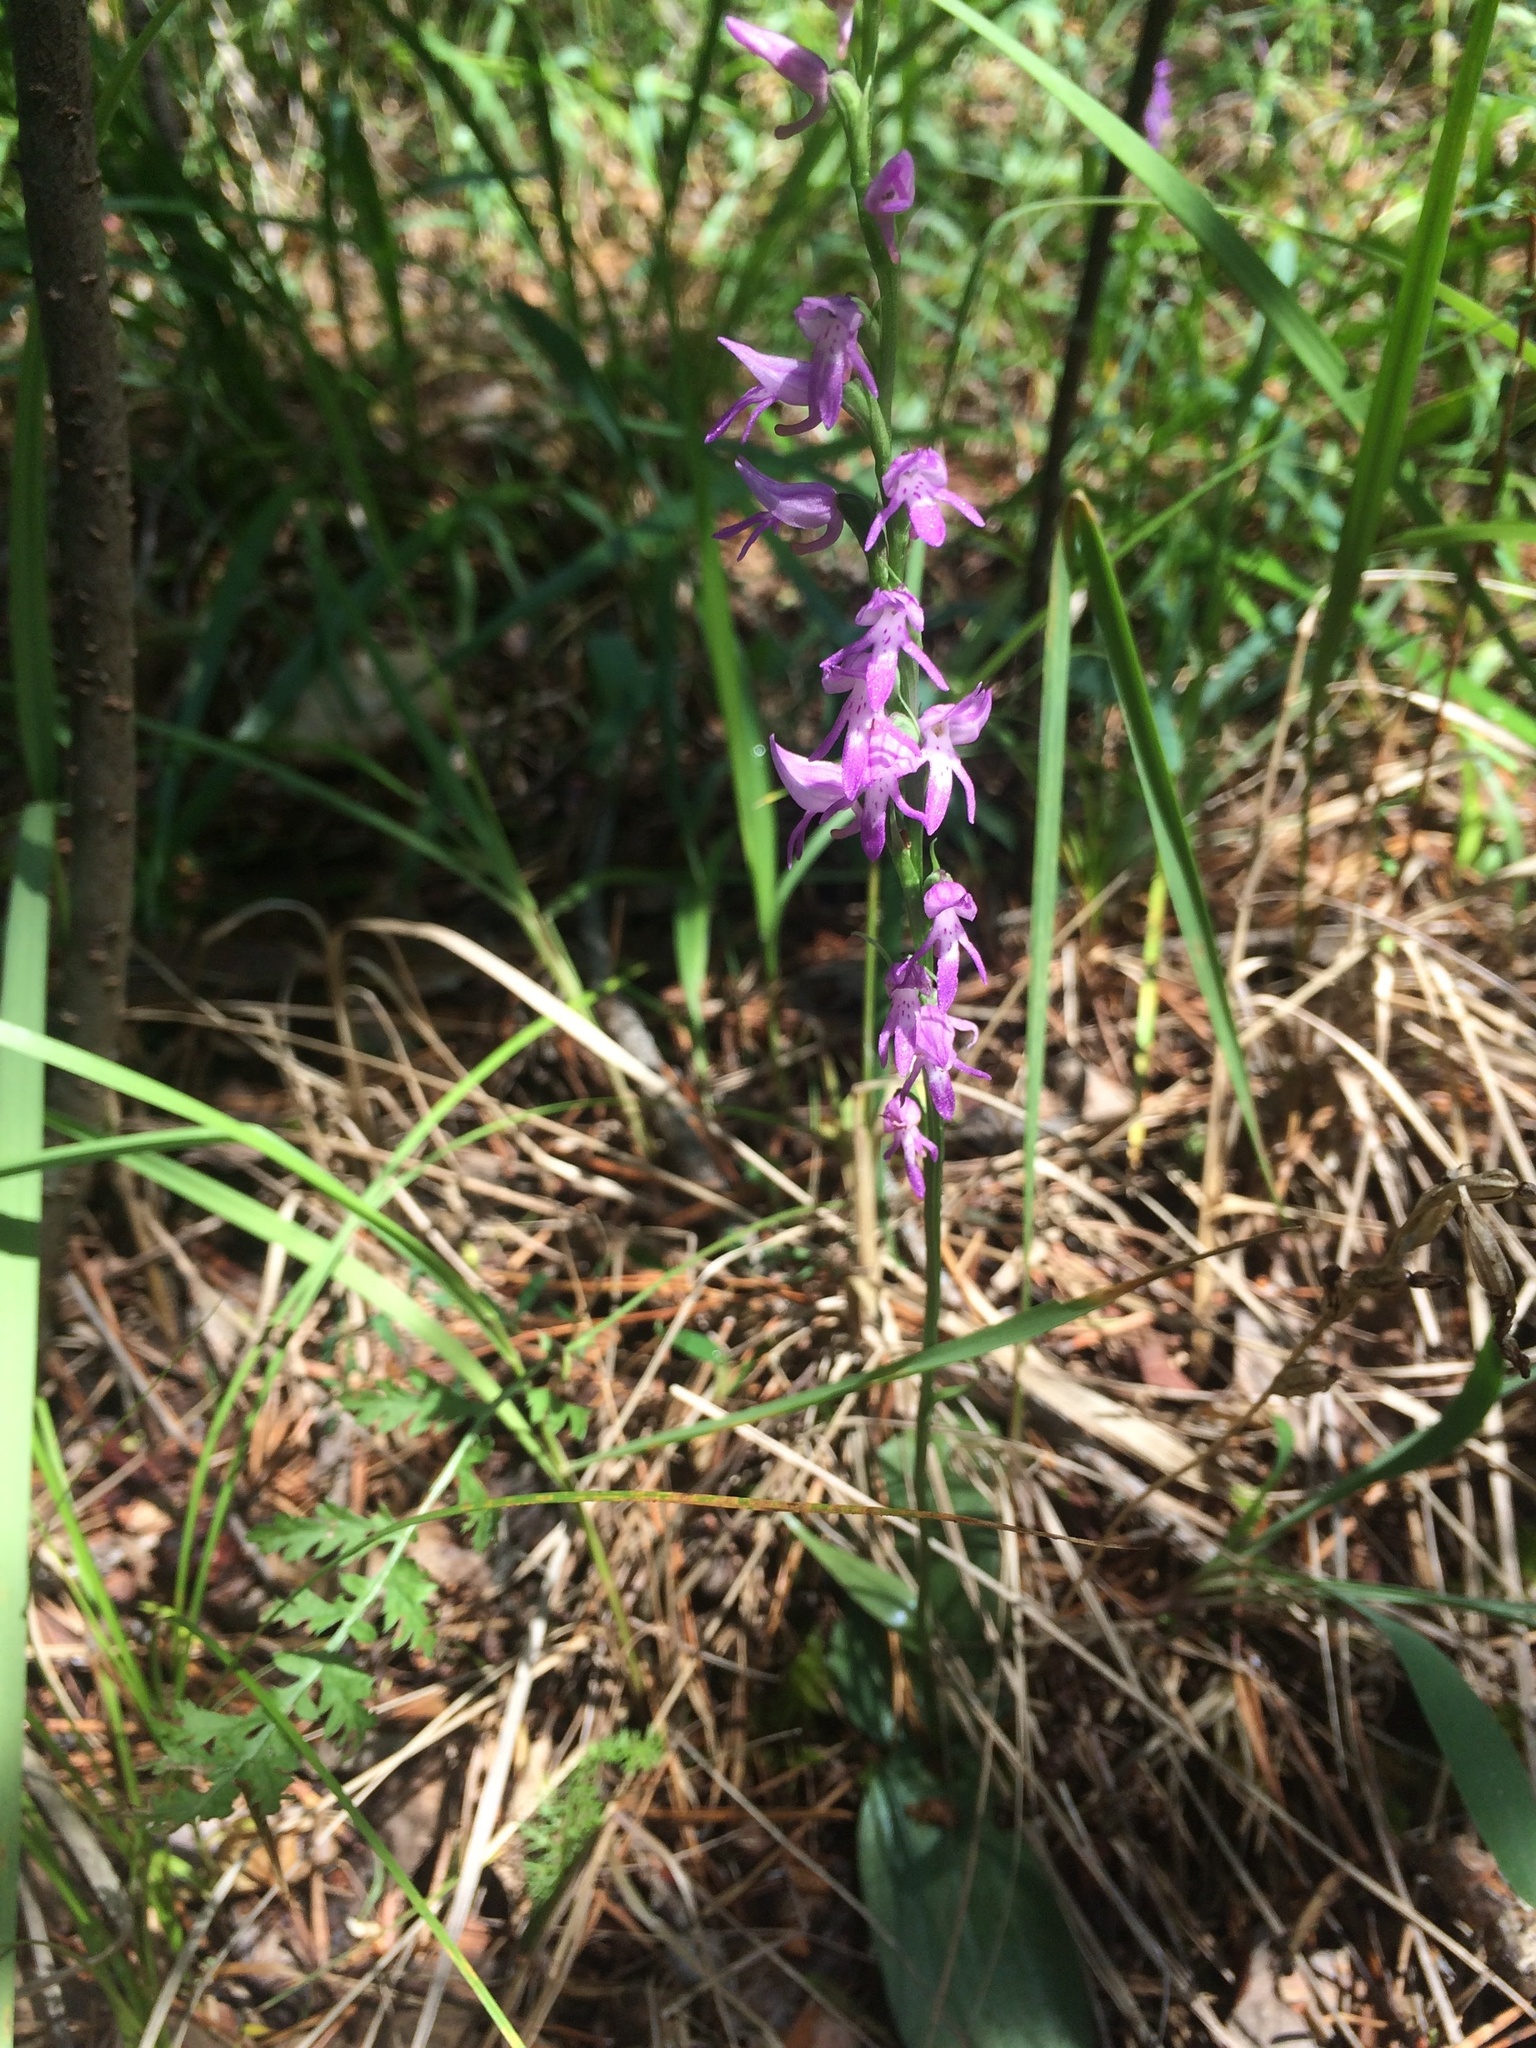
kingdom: Plantae
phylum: Tracheophyta
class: Liliopsida
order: Asparagales
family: Orchidaceae
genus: Hemipilia
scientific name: Hemipilia cucullata
